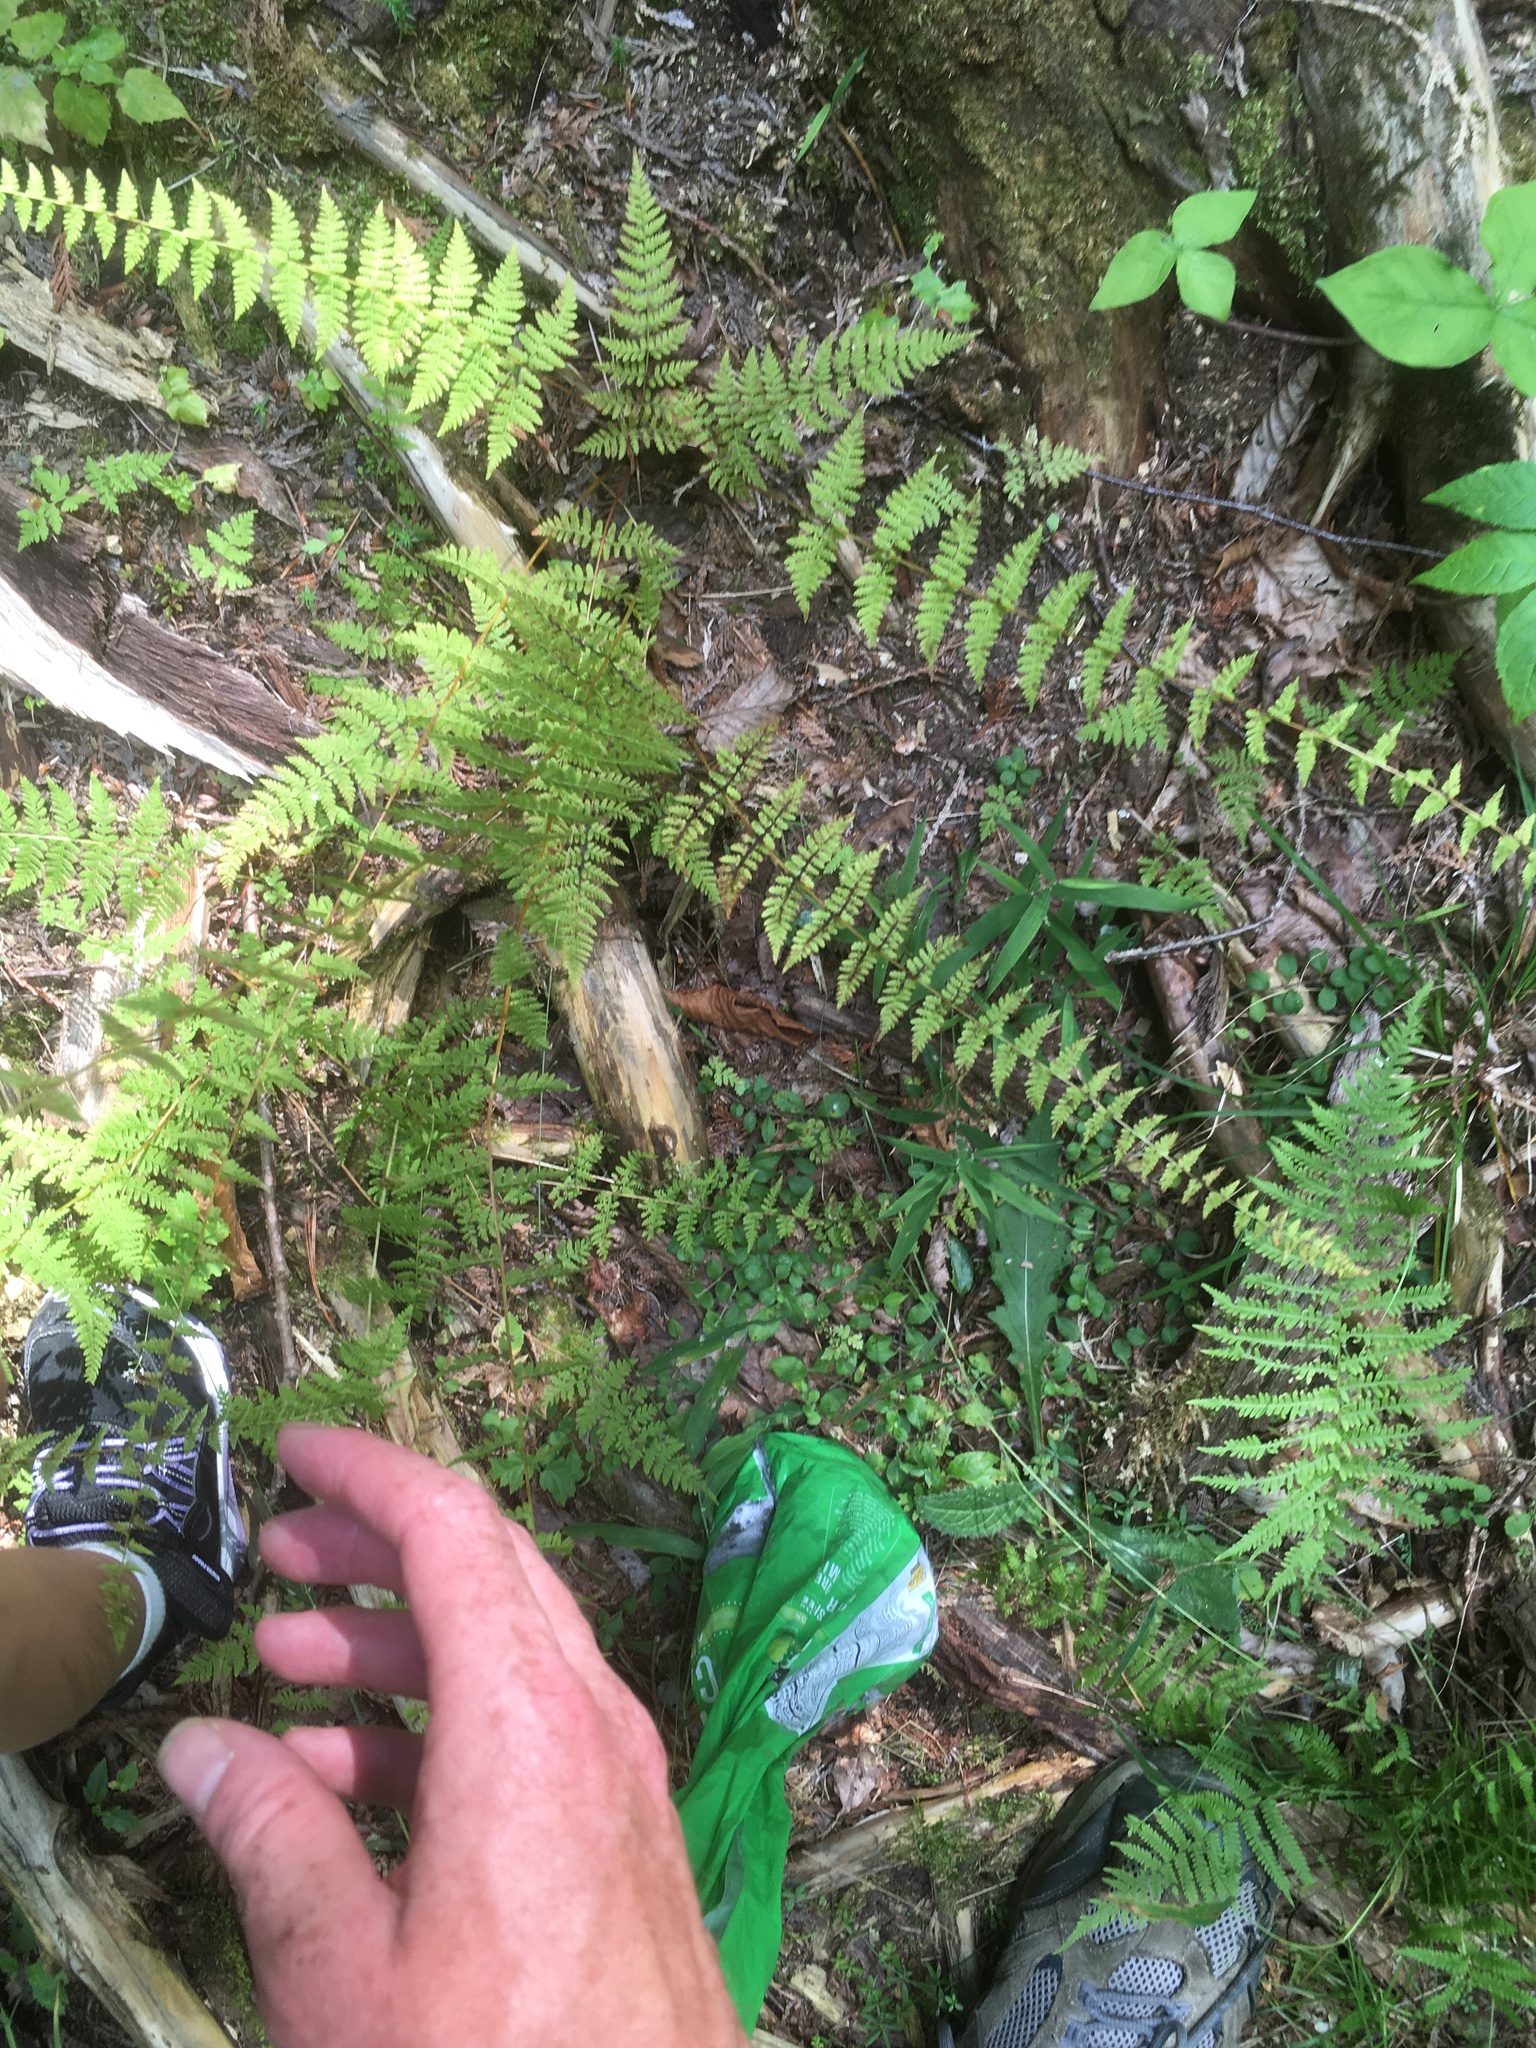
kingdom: Plantae
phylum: Tracheophyta
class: Polypodiopsida
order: Polypodiales
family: Cystopteridaceae
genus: Cystopteris
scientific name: Cystopteris bulbifera
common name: Bulblet bladder fern
